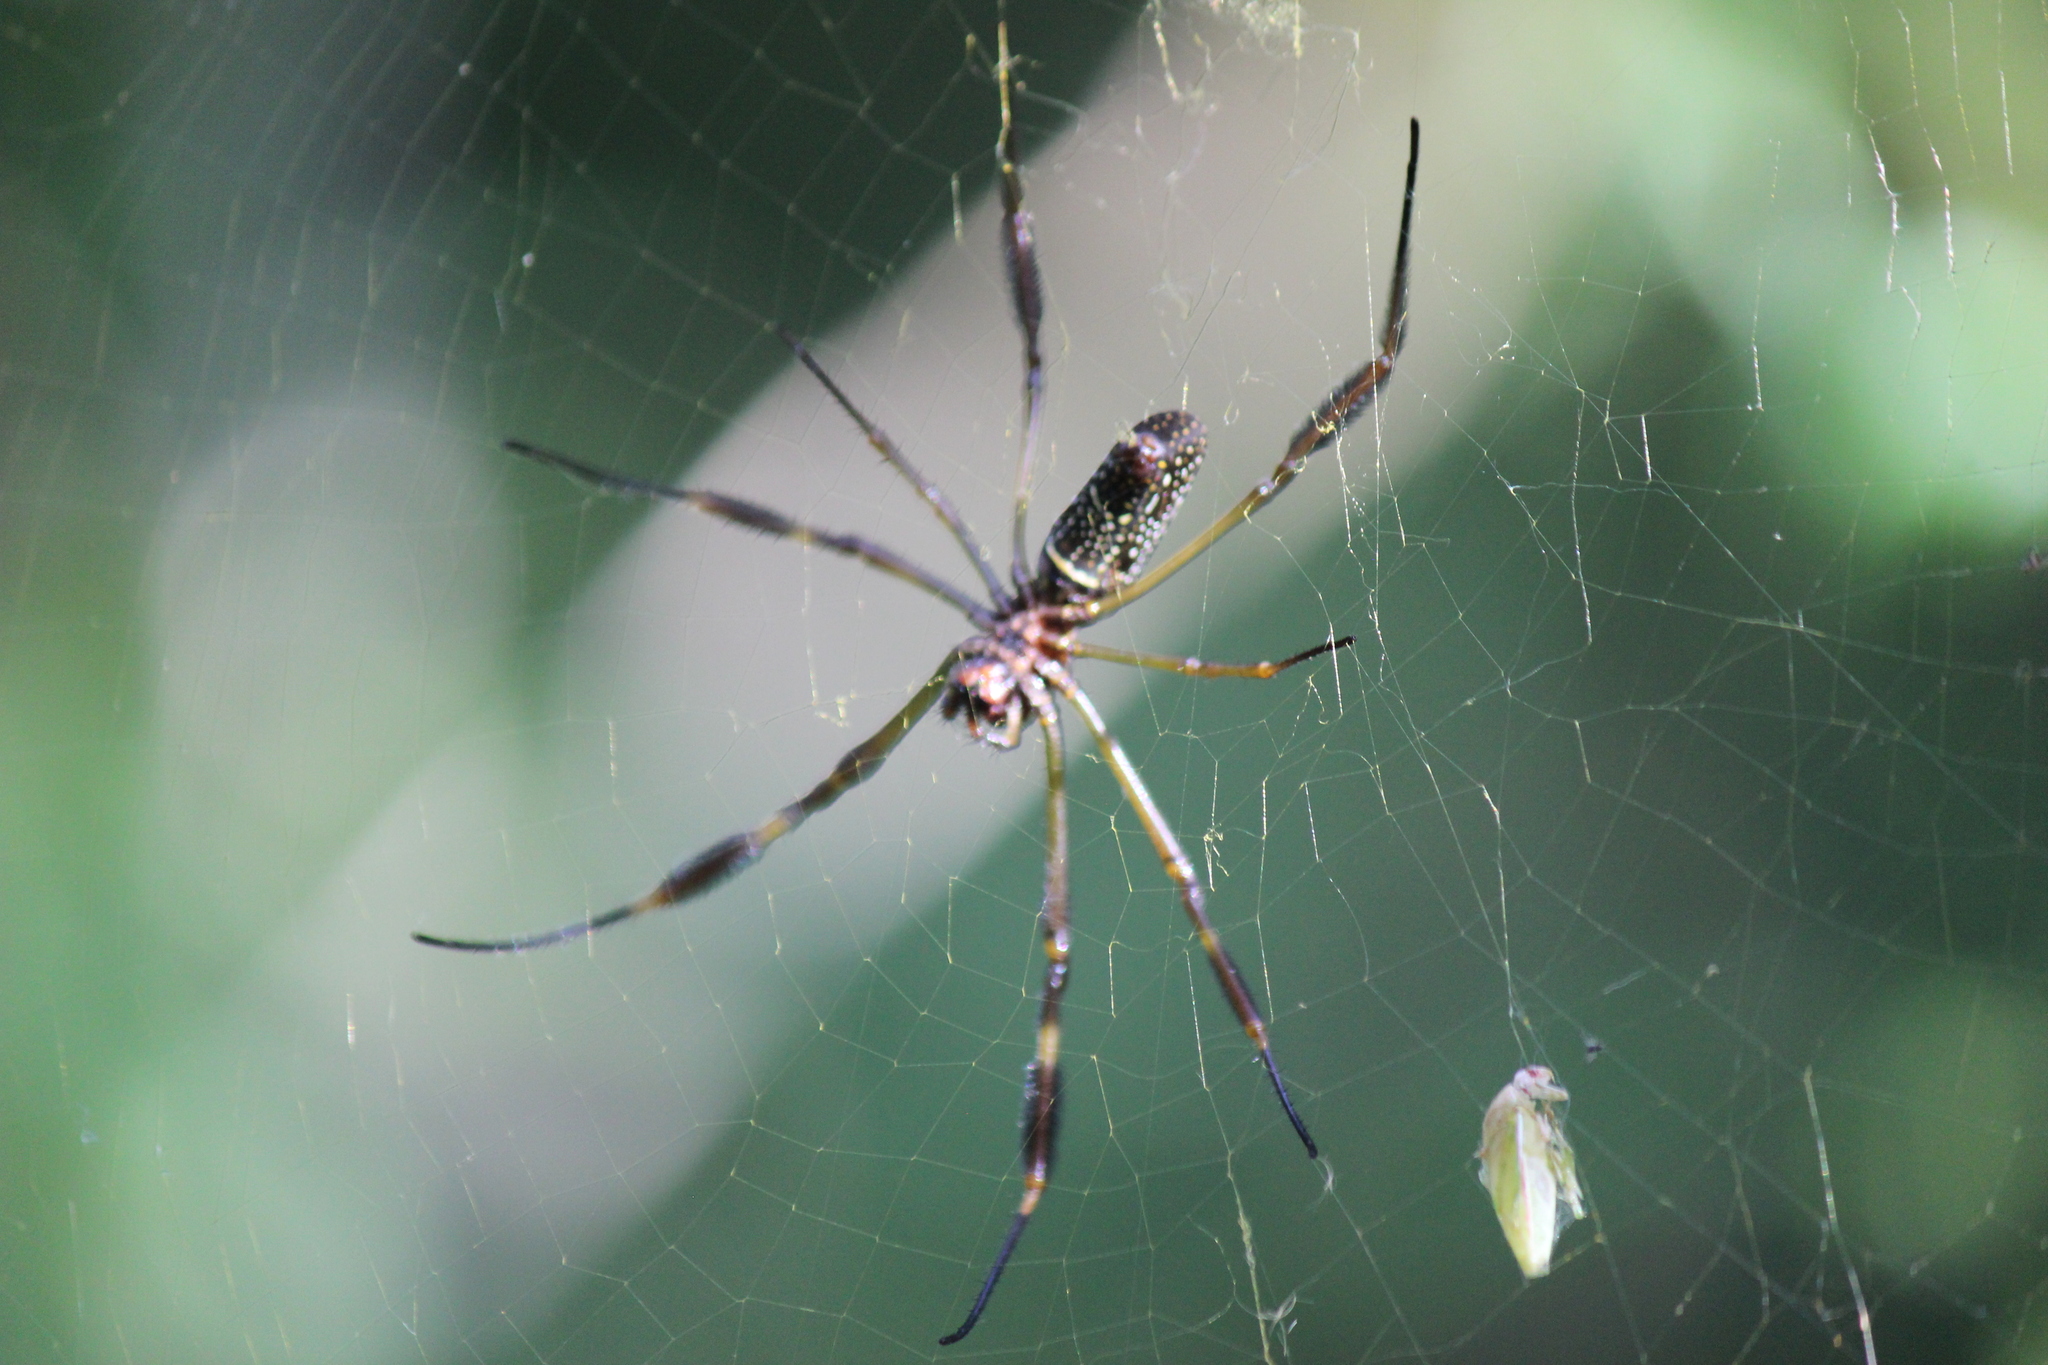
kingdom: Animalia
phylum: Arthropoda
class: Arachnida
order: Araneae
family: Araneidae
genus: Trichonephila
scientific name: Trichonephila clavipes
